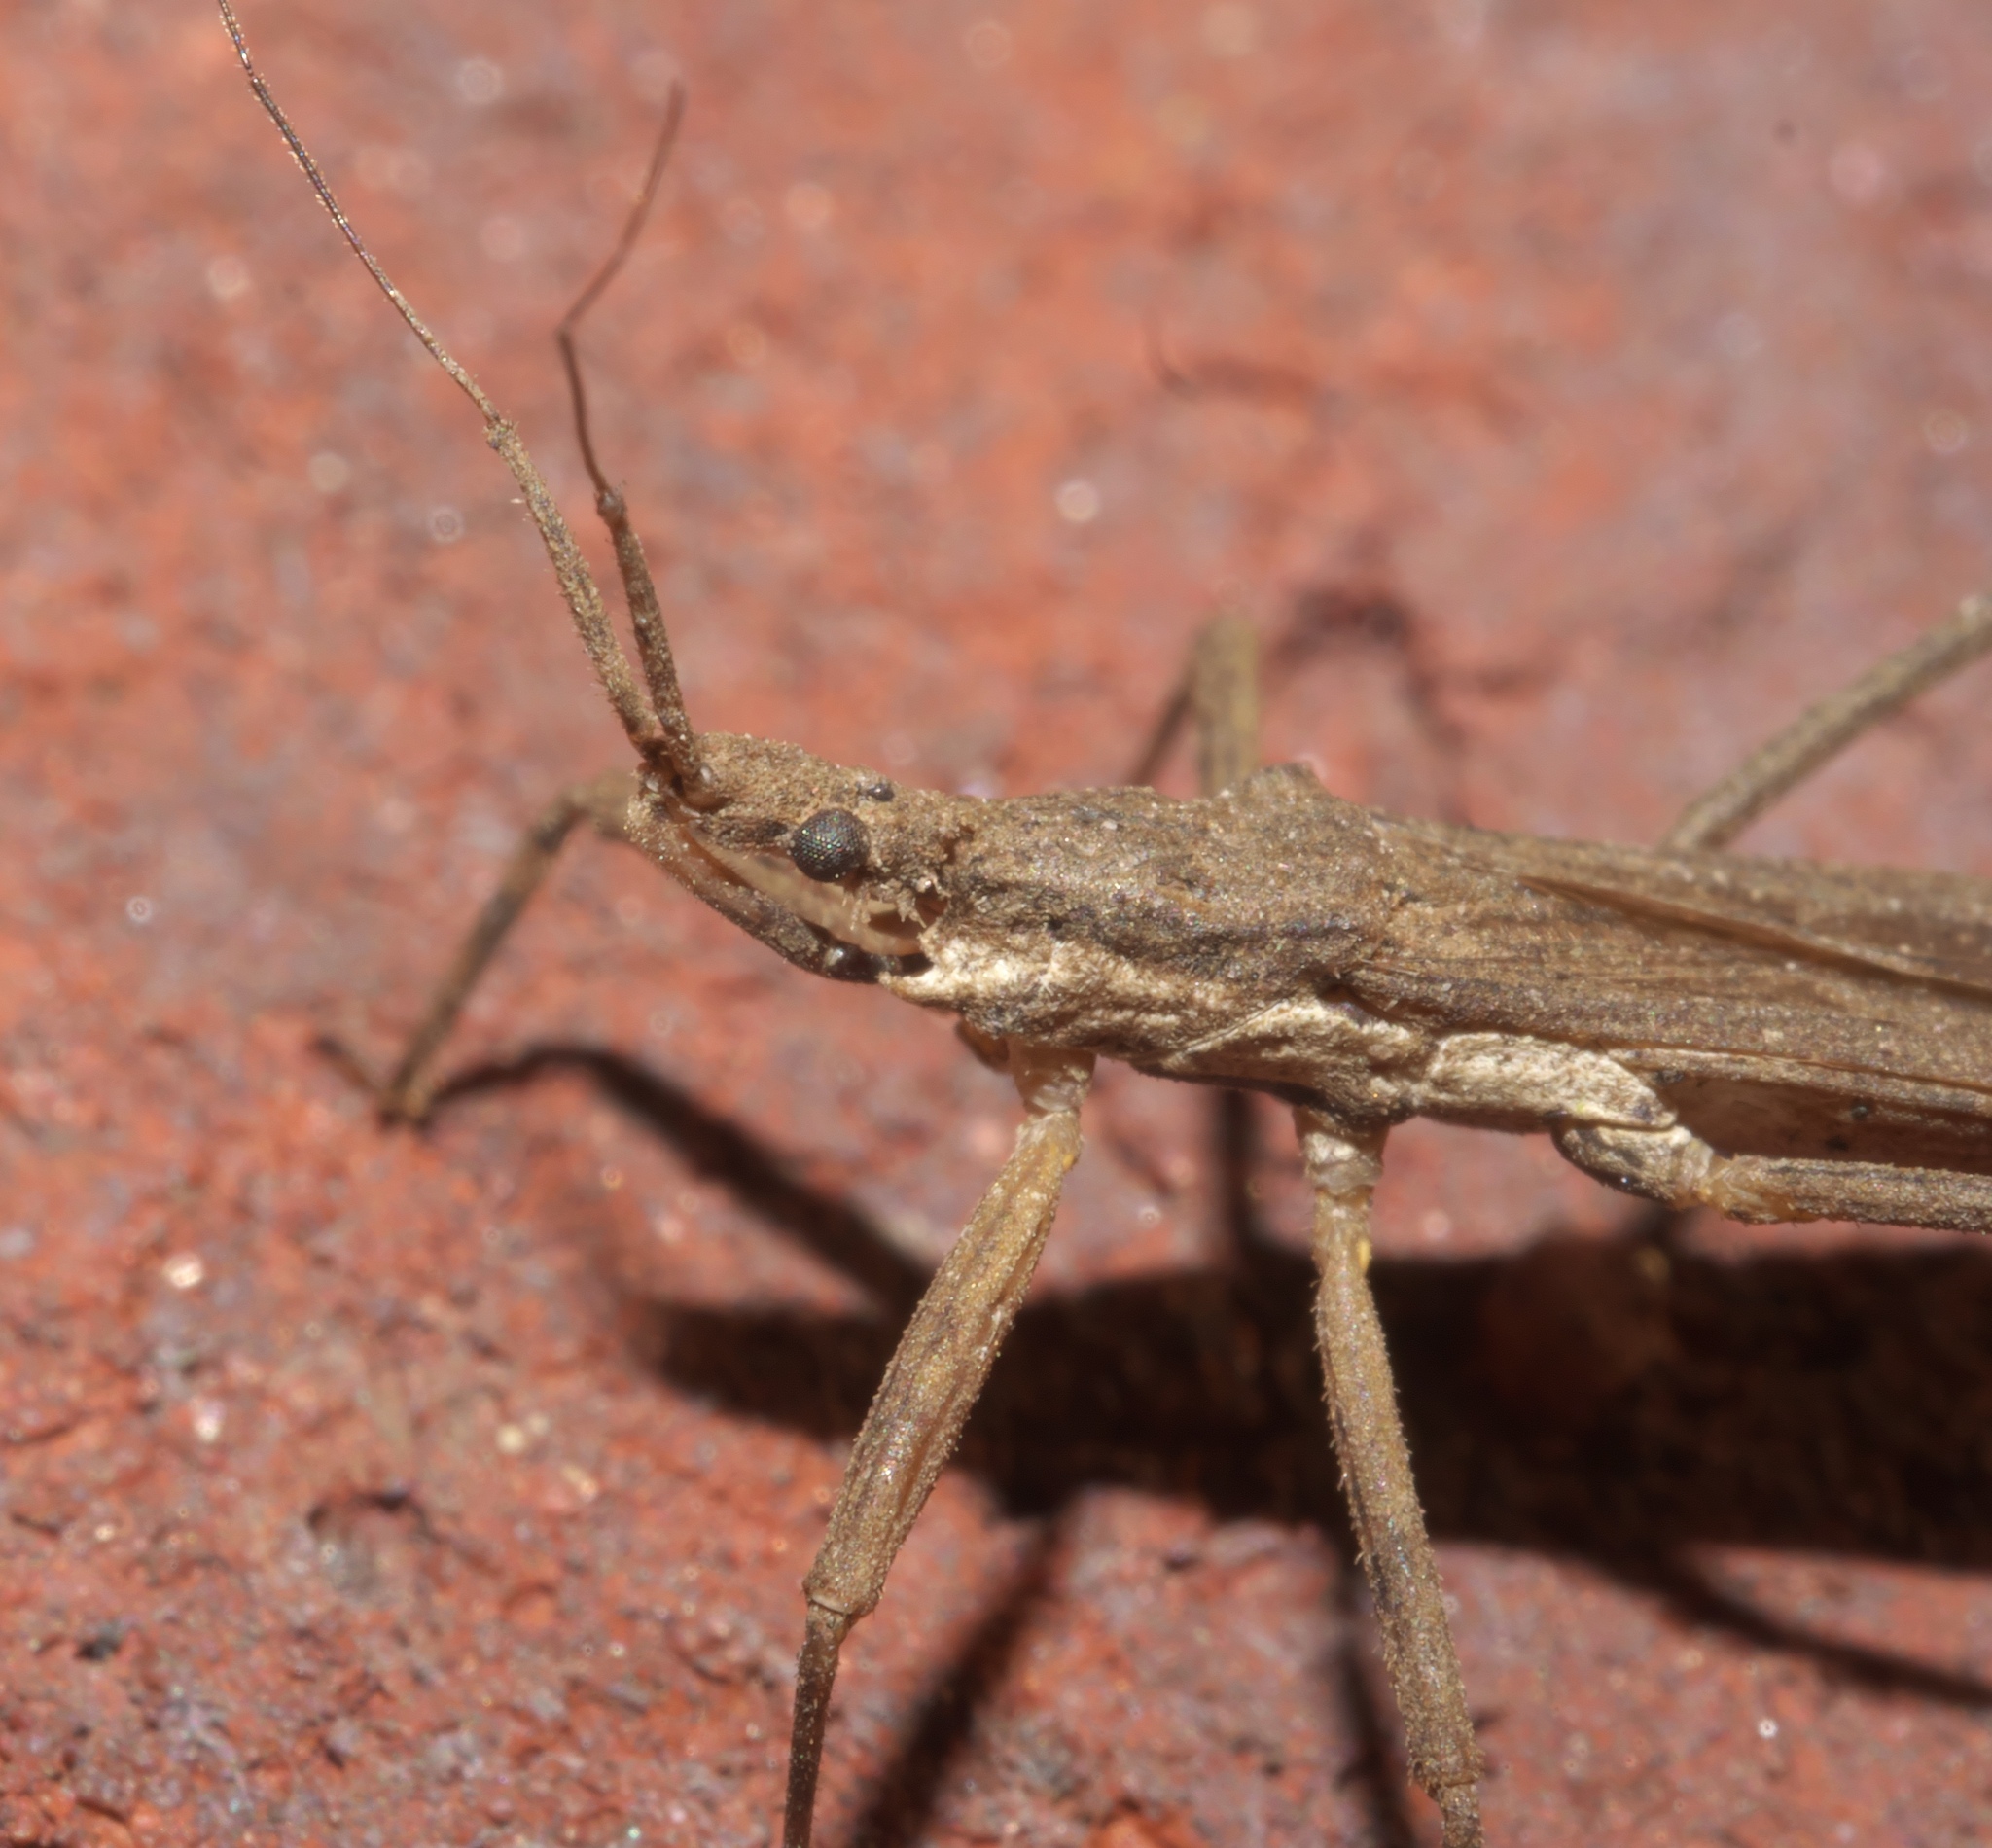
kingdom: Animalia
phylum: Arthropoda
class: Insecta
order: Hemiptera
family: Reduviidae
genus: Pygolampis
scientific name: Pygolampis pectoralis
